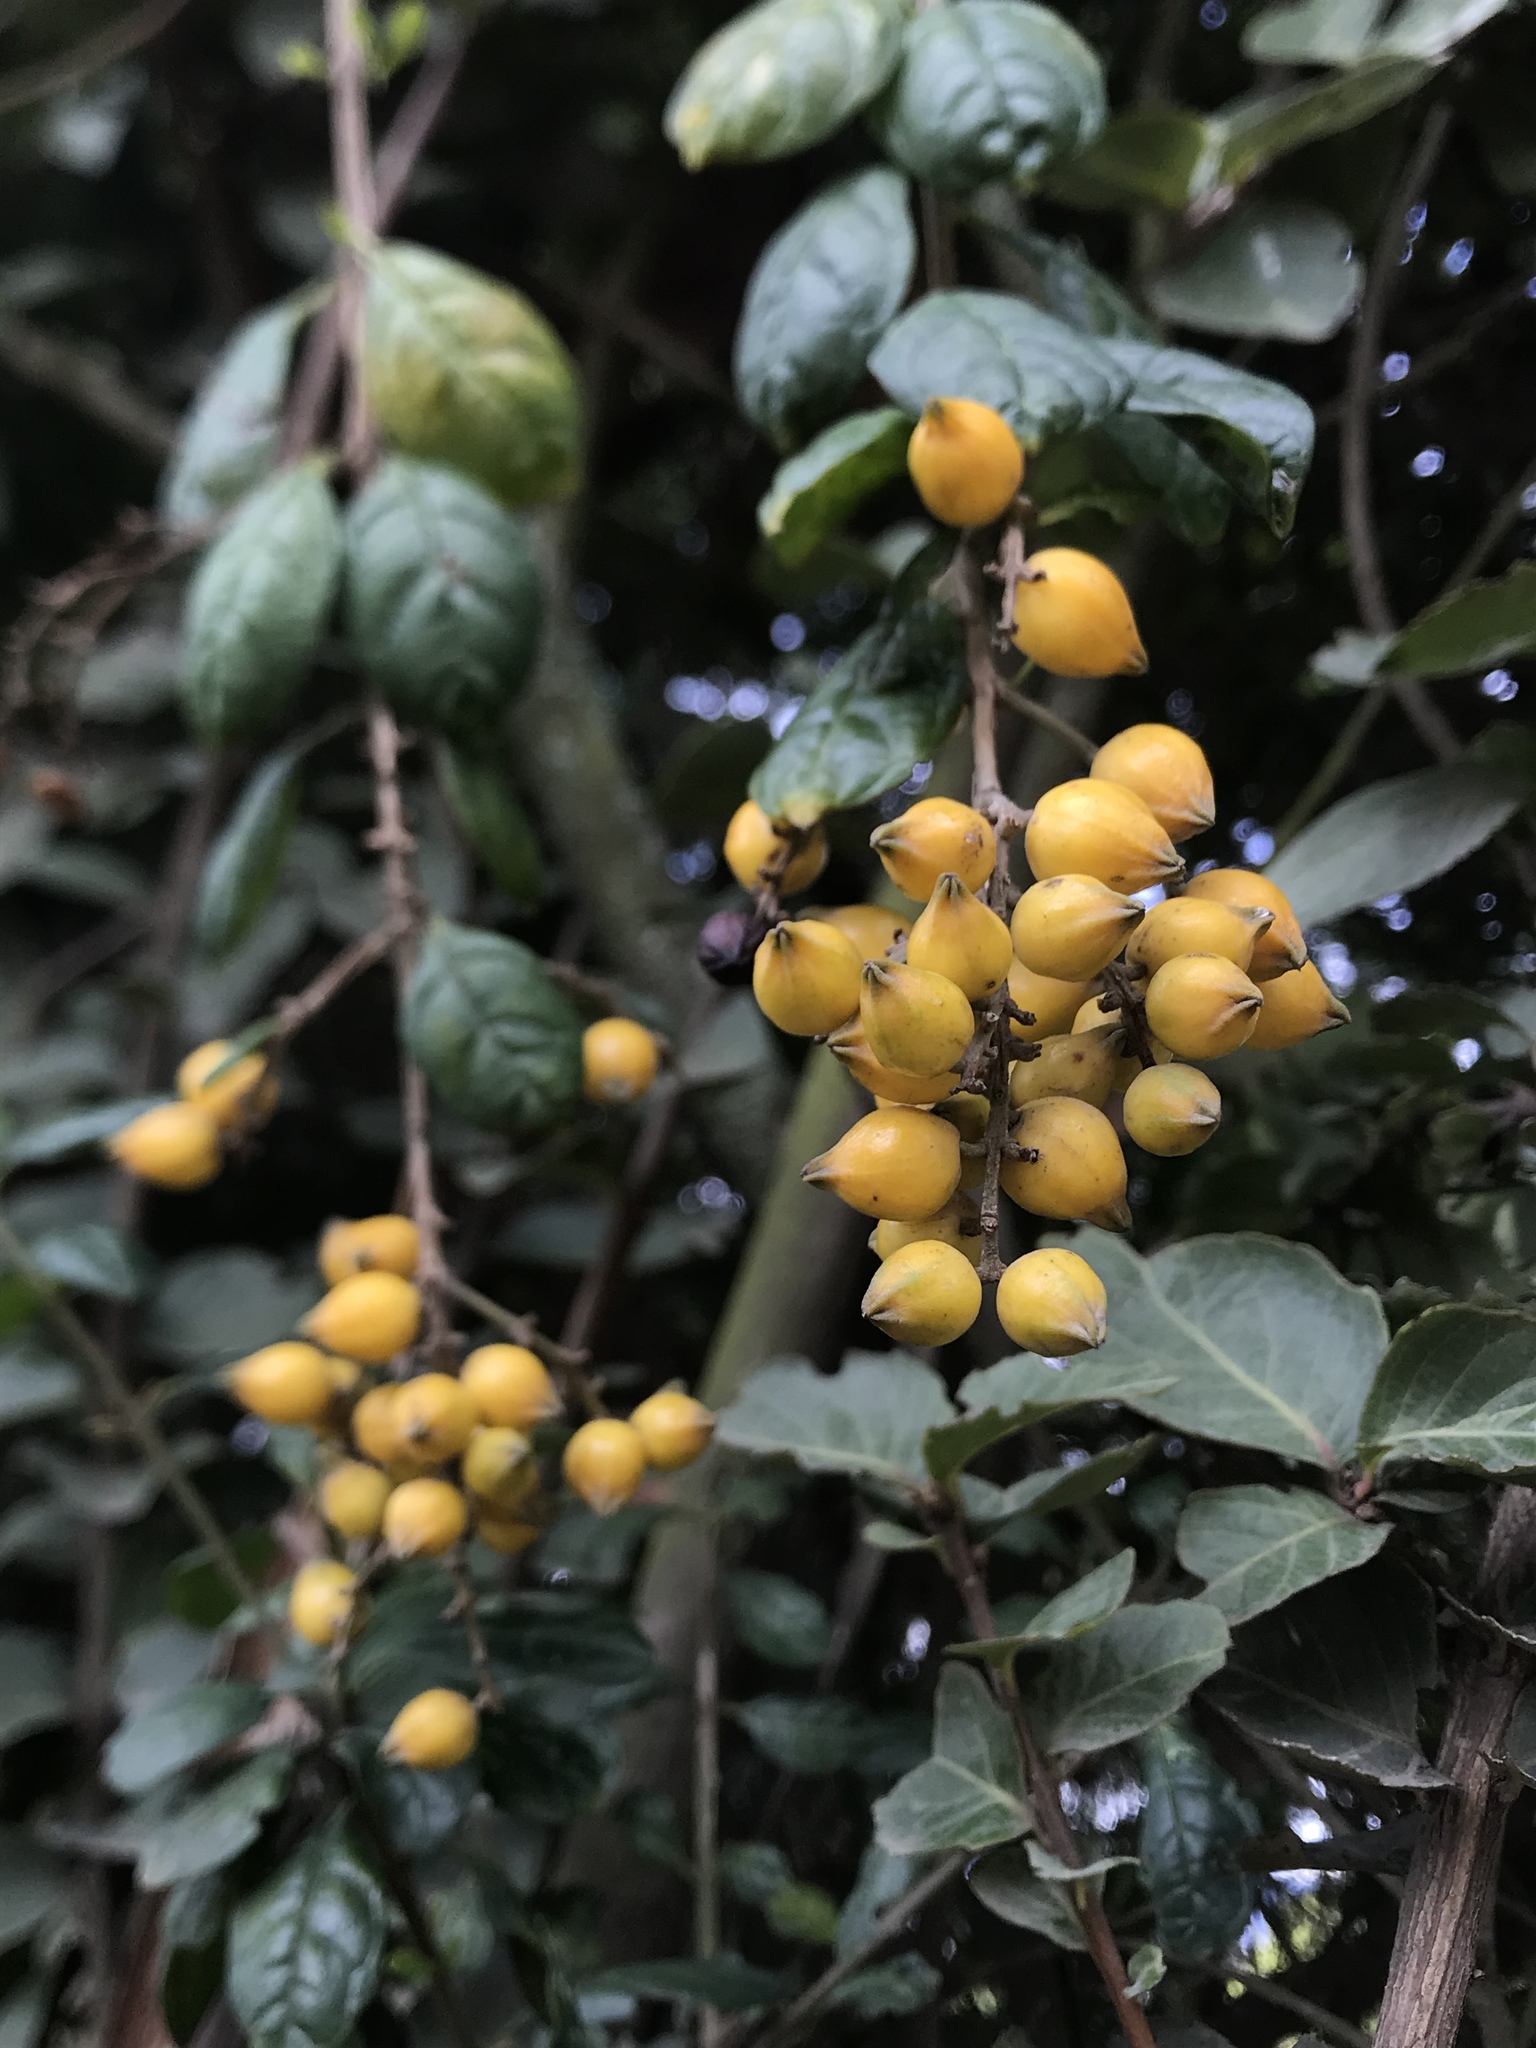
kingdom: Plantae
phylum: Tracheophyta
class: Magnoliopsida
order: Lamiales
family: Verbenaceae
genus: Duranta
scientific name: Duranta mutisii
